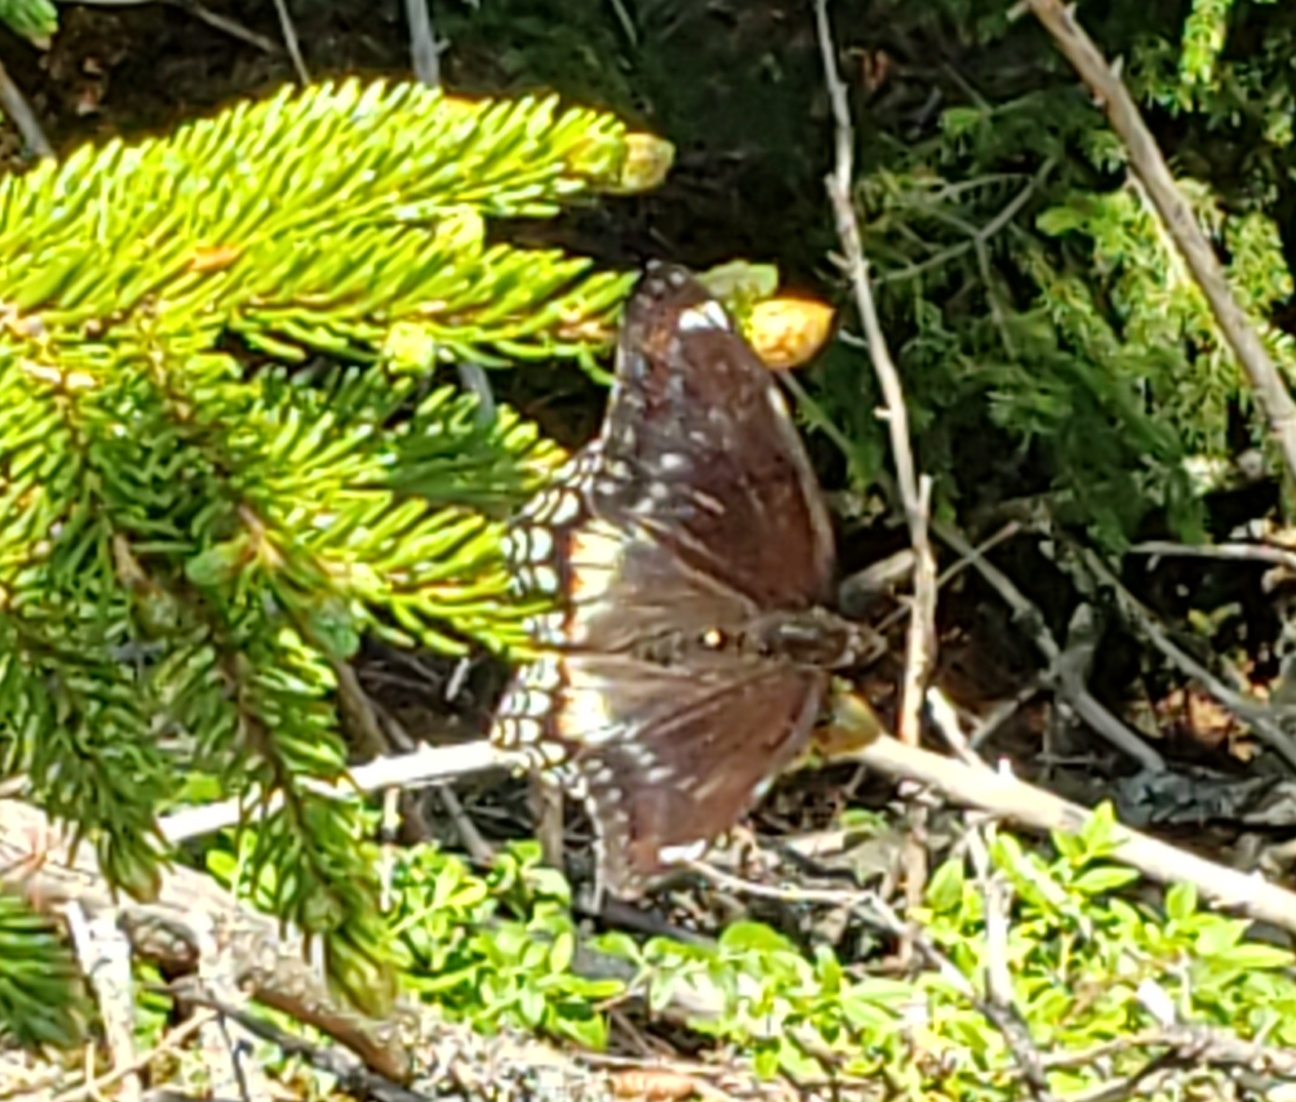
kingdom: Animalia
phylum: Arthropoda
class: Insecta
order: Lepidoptera
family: Nymphalidae
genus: Limenitis
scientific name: Limenitis astyanax
